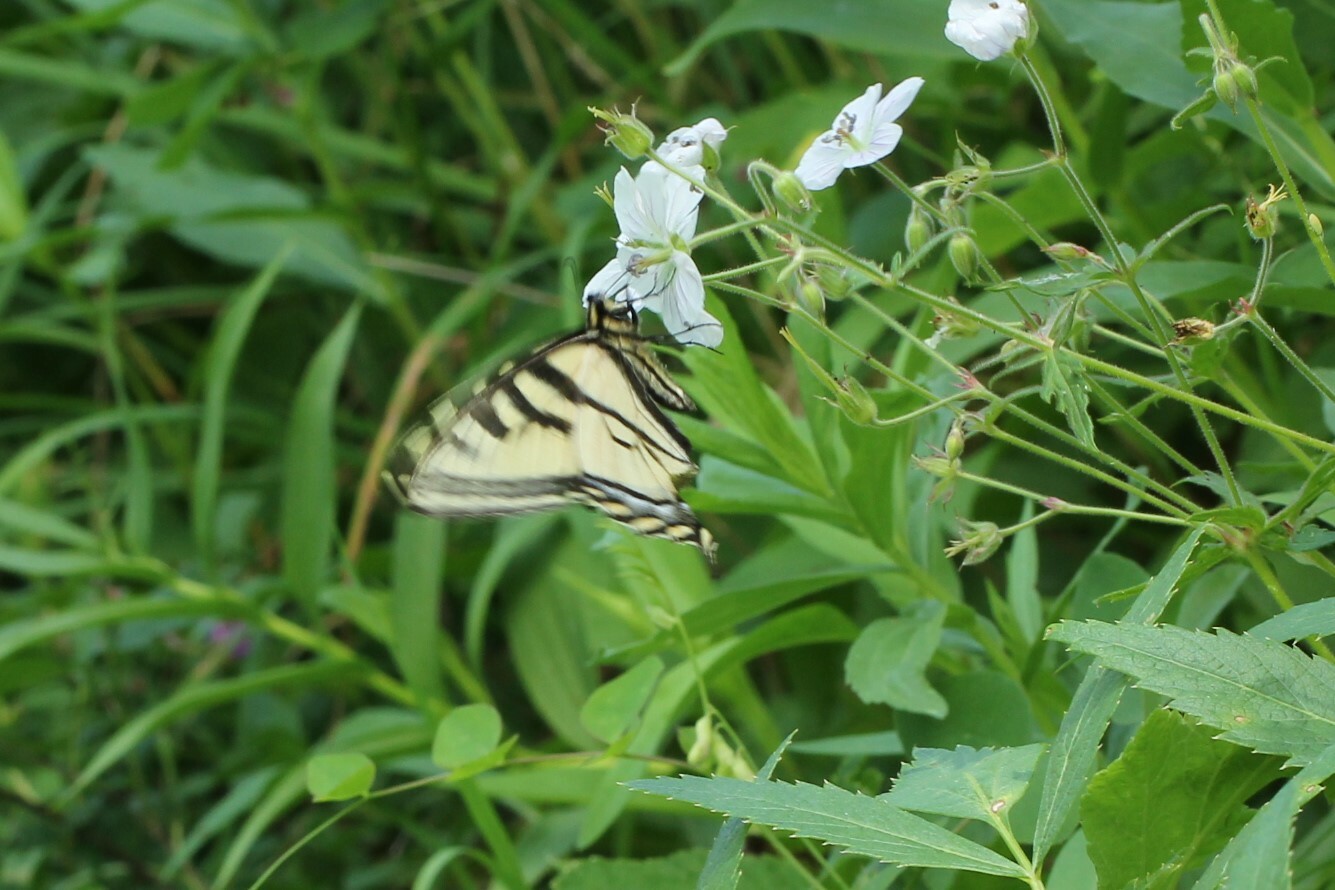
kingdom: Animalia
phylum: Arthropoda
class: Insecta
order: Lepidoptera
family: Papilionidae
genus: Papilio
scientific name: Papilio canadensis
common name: Canadian tiger swallowtail
